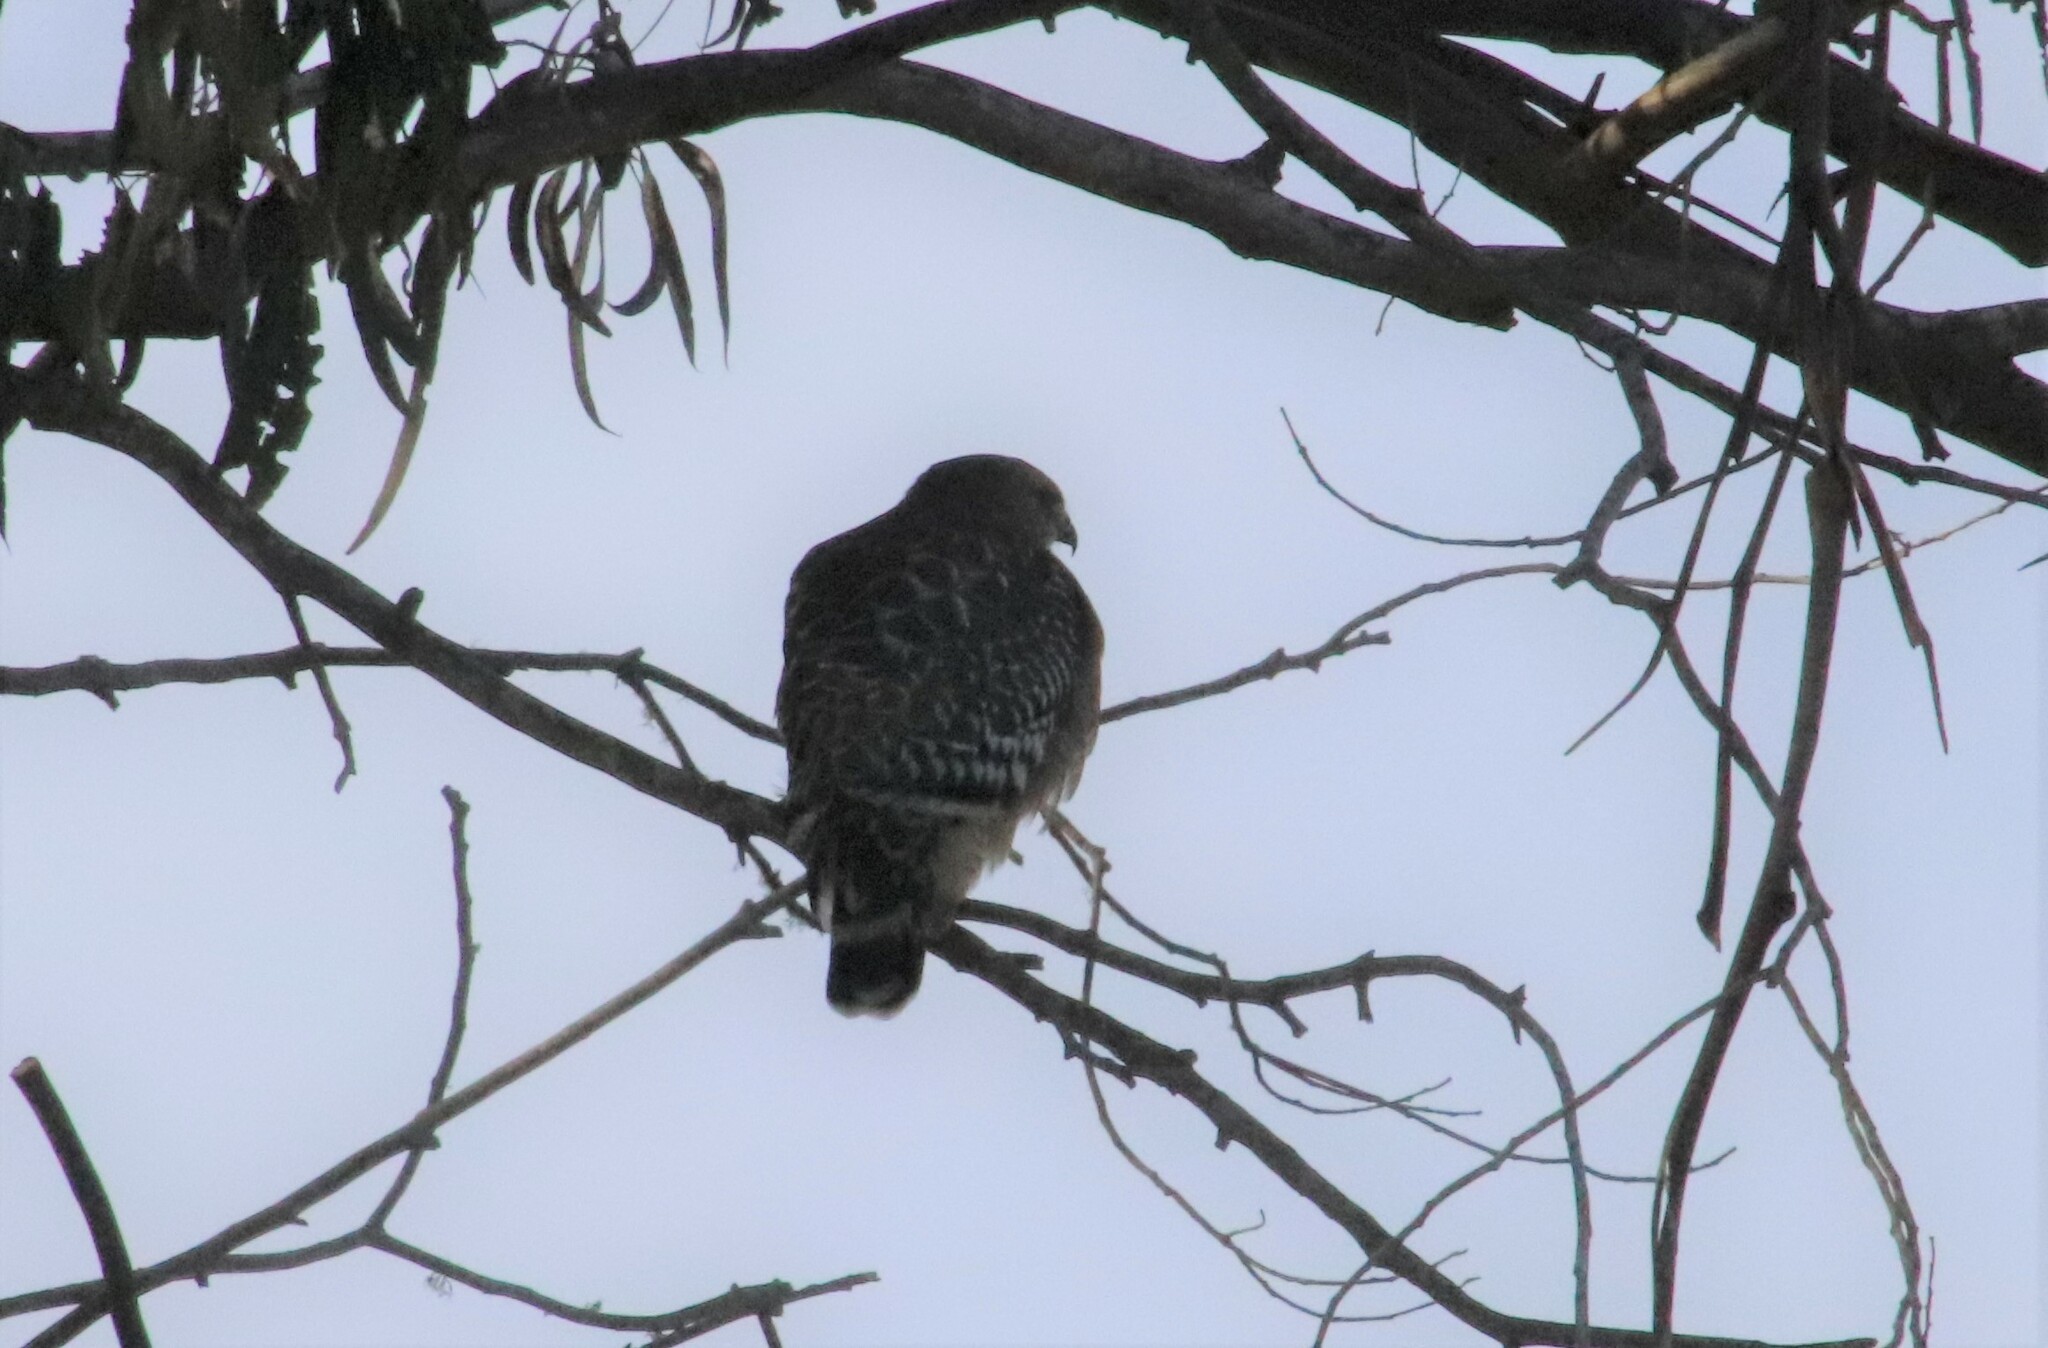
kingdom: Animalia
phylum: Chordata
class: Aves
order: Accipitriformes
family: Accipitridae
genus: Buteo
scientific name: Buteo lineatus
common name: Red-shouldered hawk
